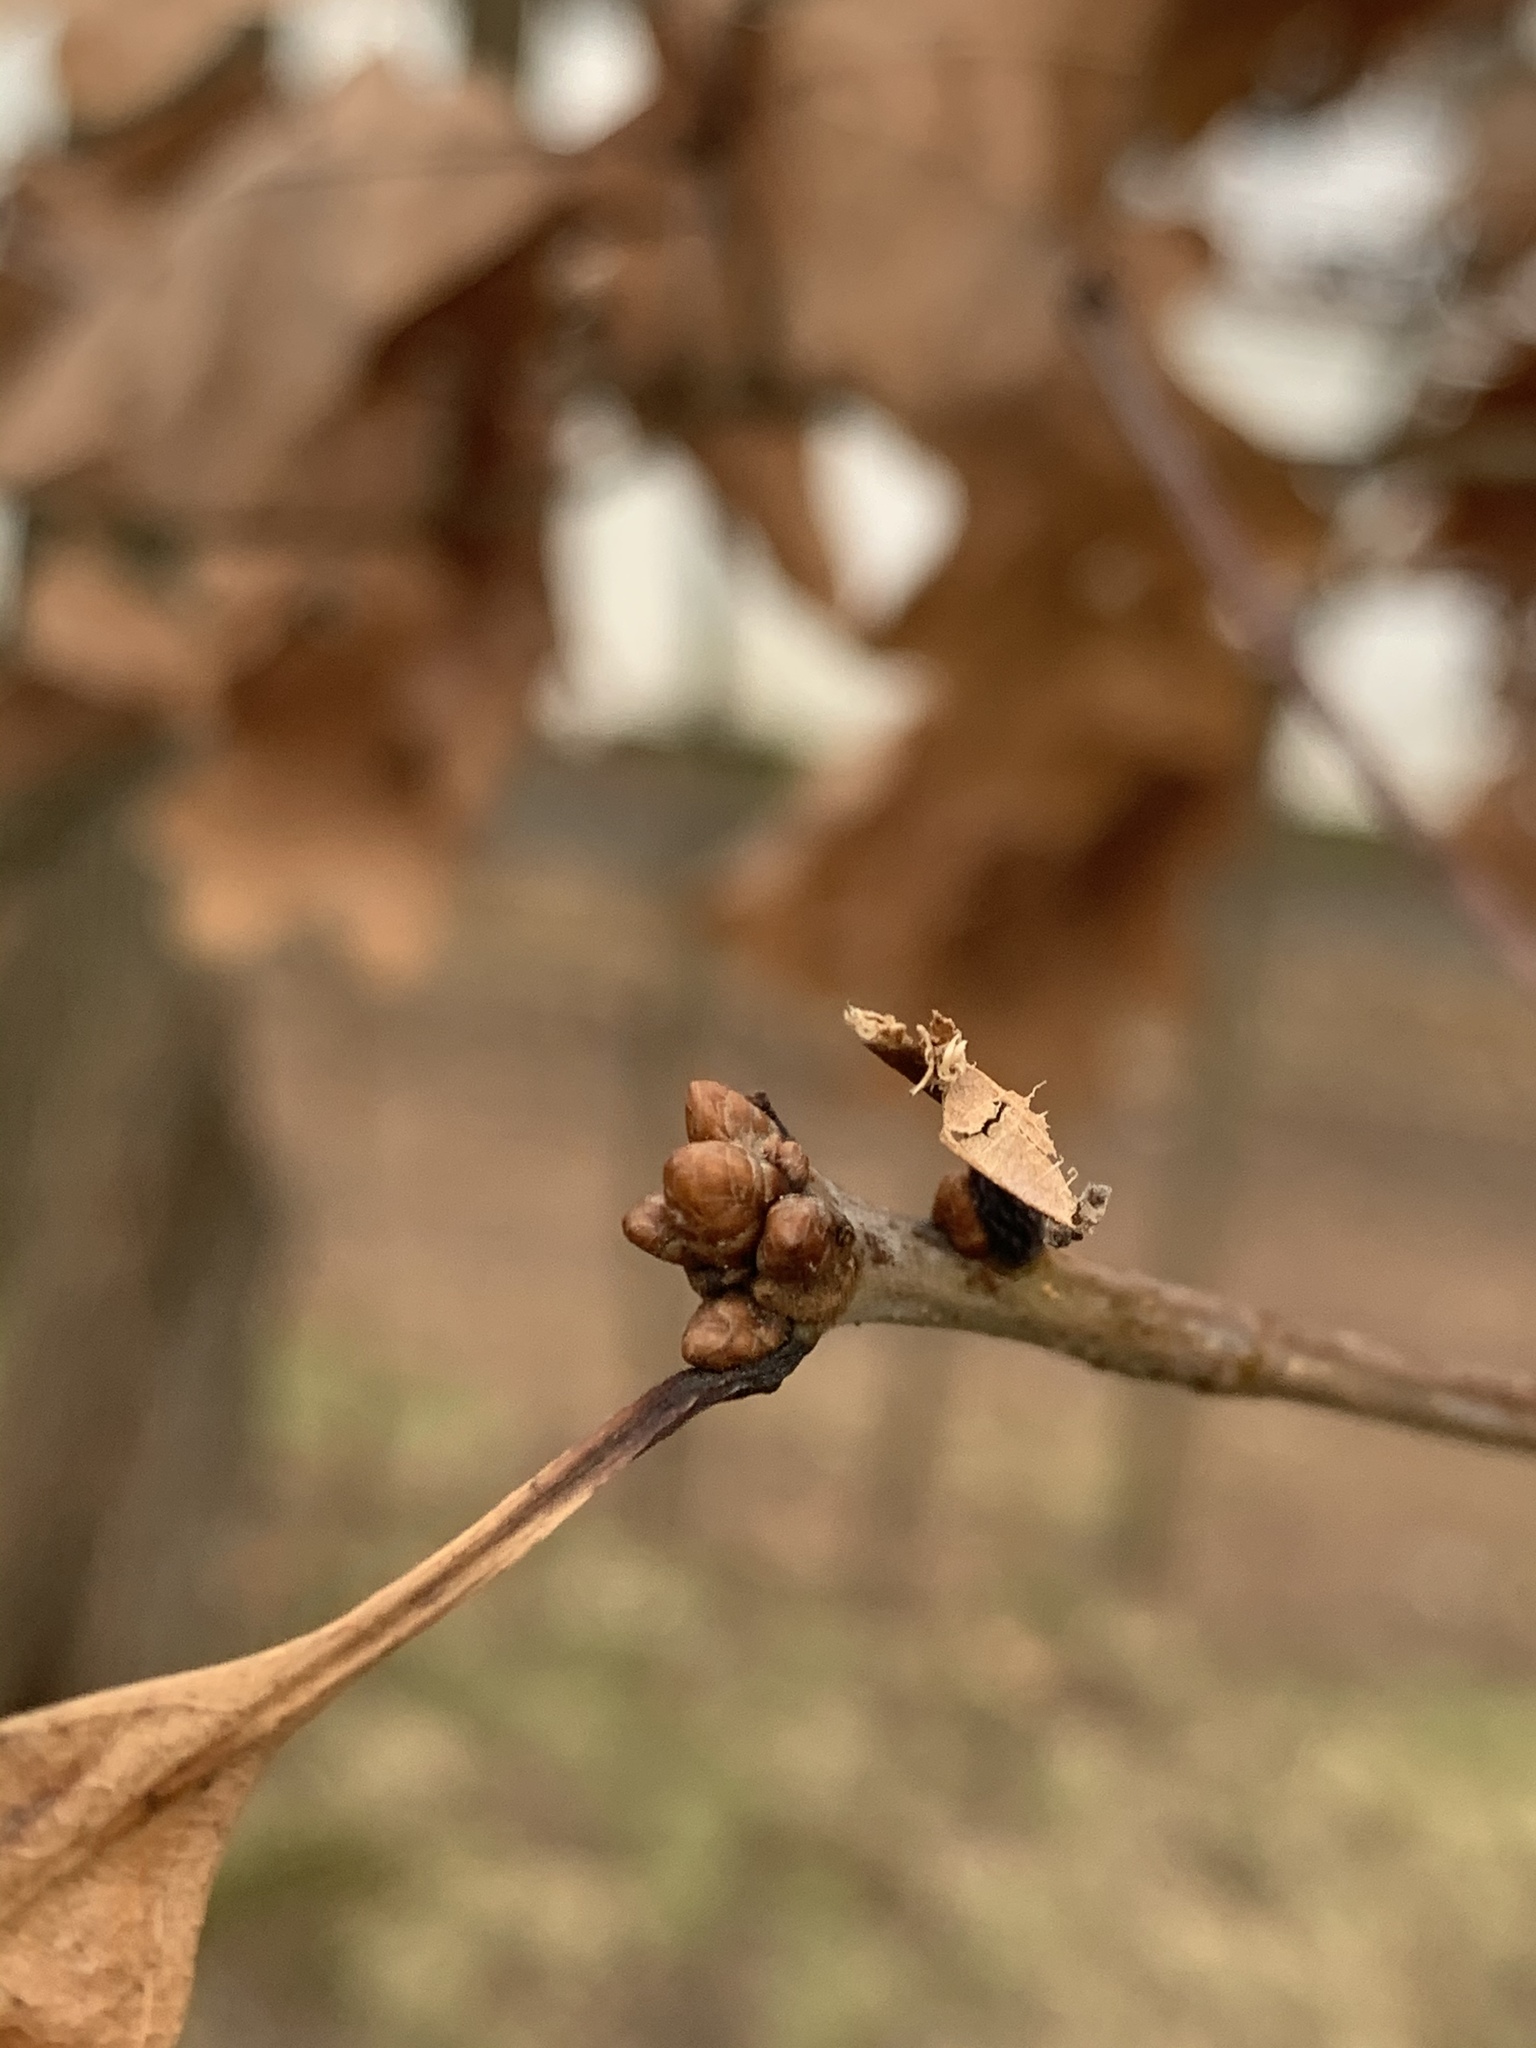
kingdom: Plantae
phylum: Tracheophyta
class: Magnoliopsida
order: Fagales
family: Fagaceae
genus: Quercus
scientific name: Quercus alba
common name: White oak
